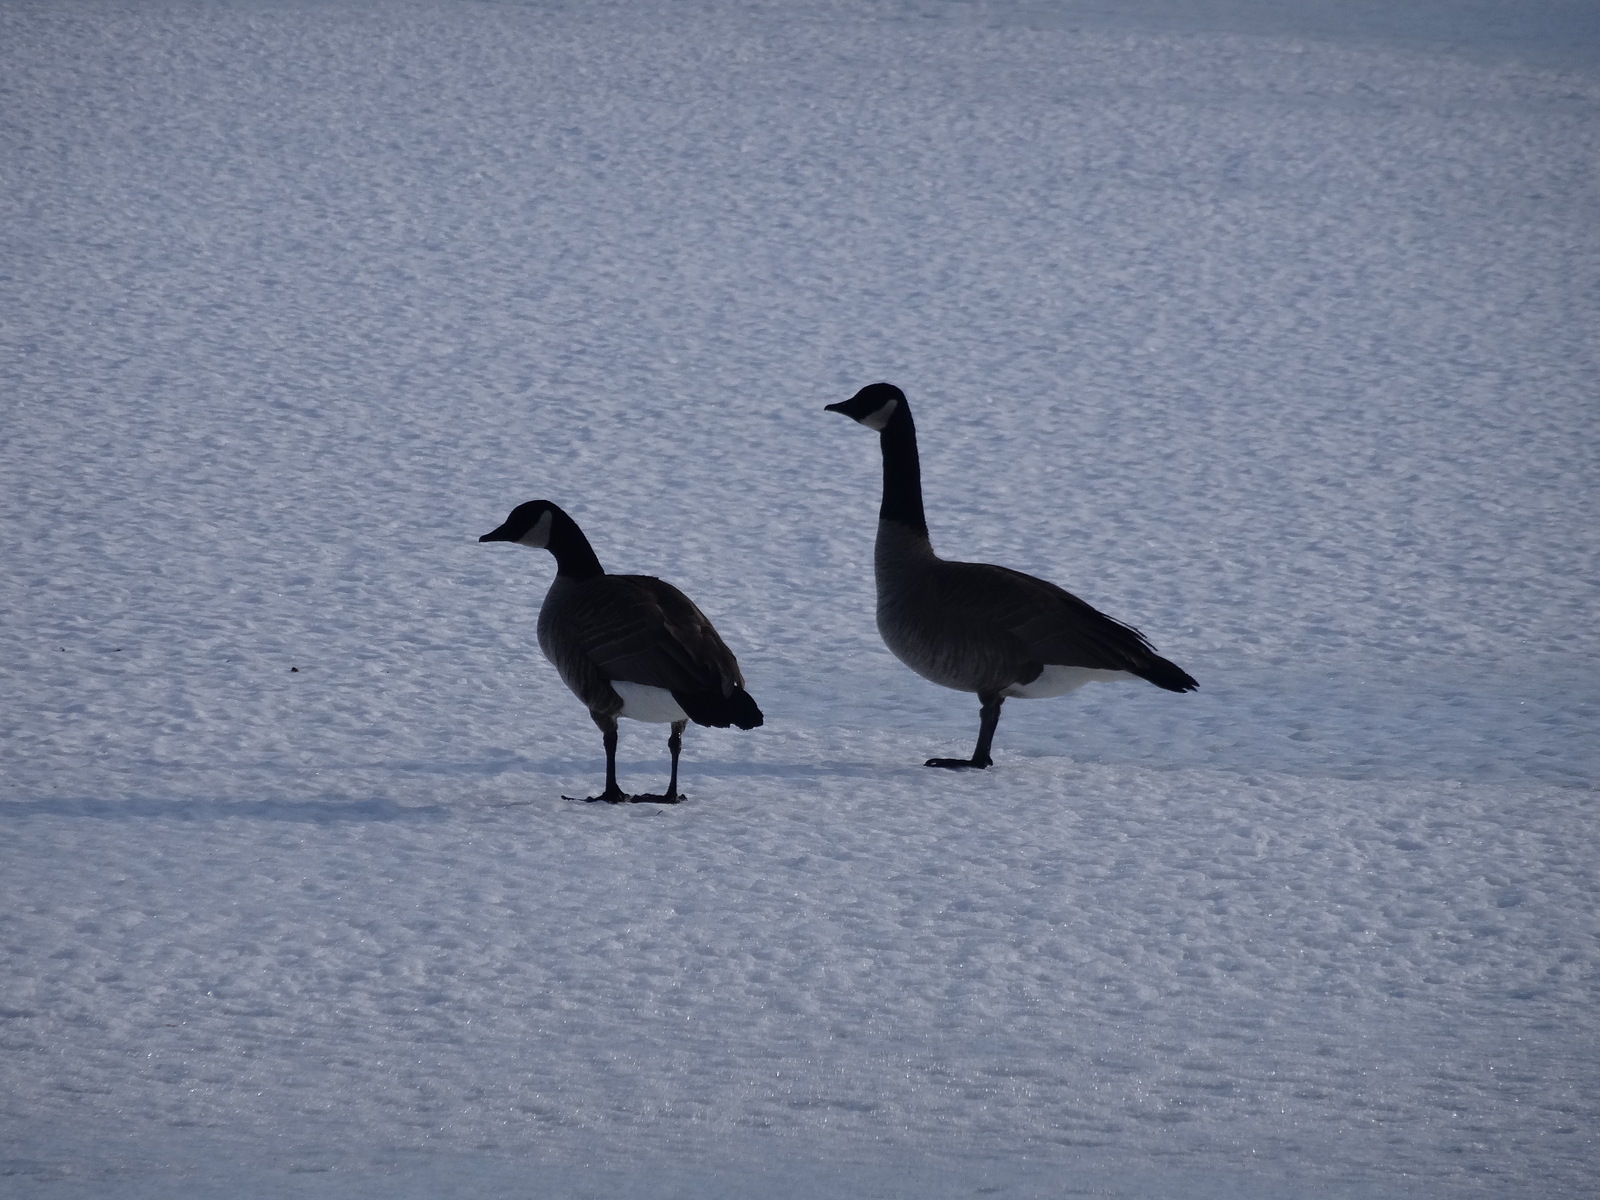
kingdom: Animalia
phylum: Chordata
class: Aves
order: Anseriformes
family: Anatidae
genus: Branta
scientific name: Branta canadensis
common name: Canada goose
